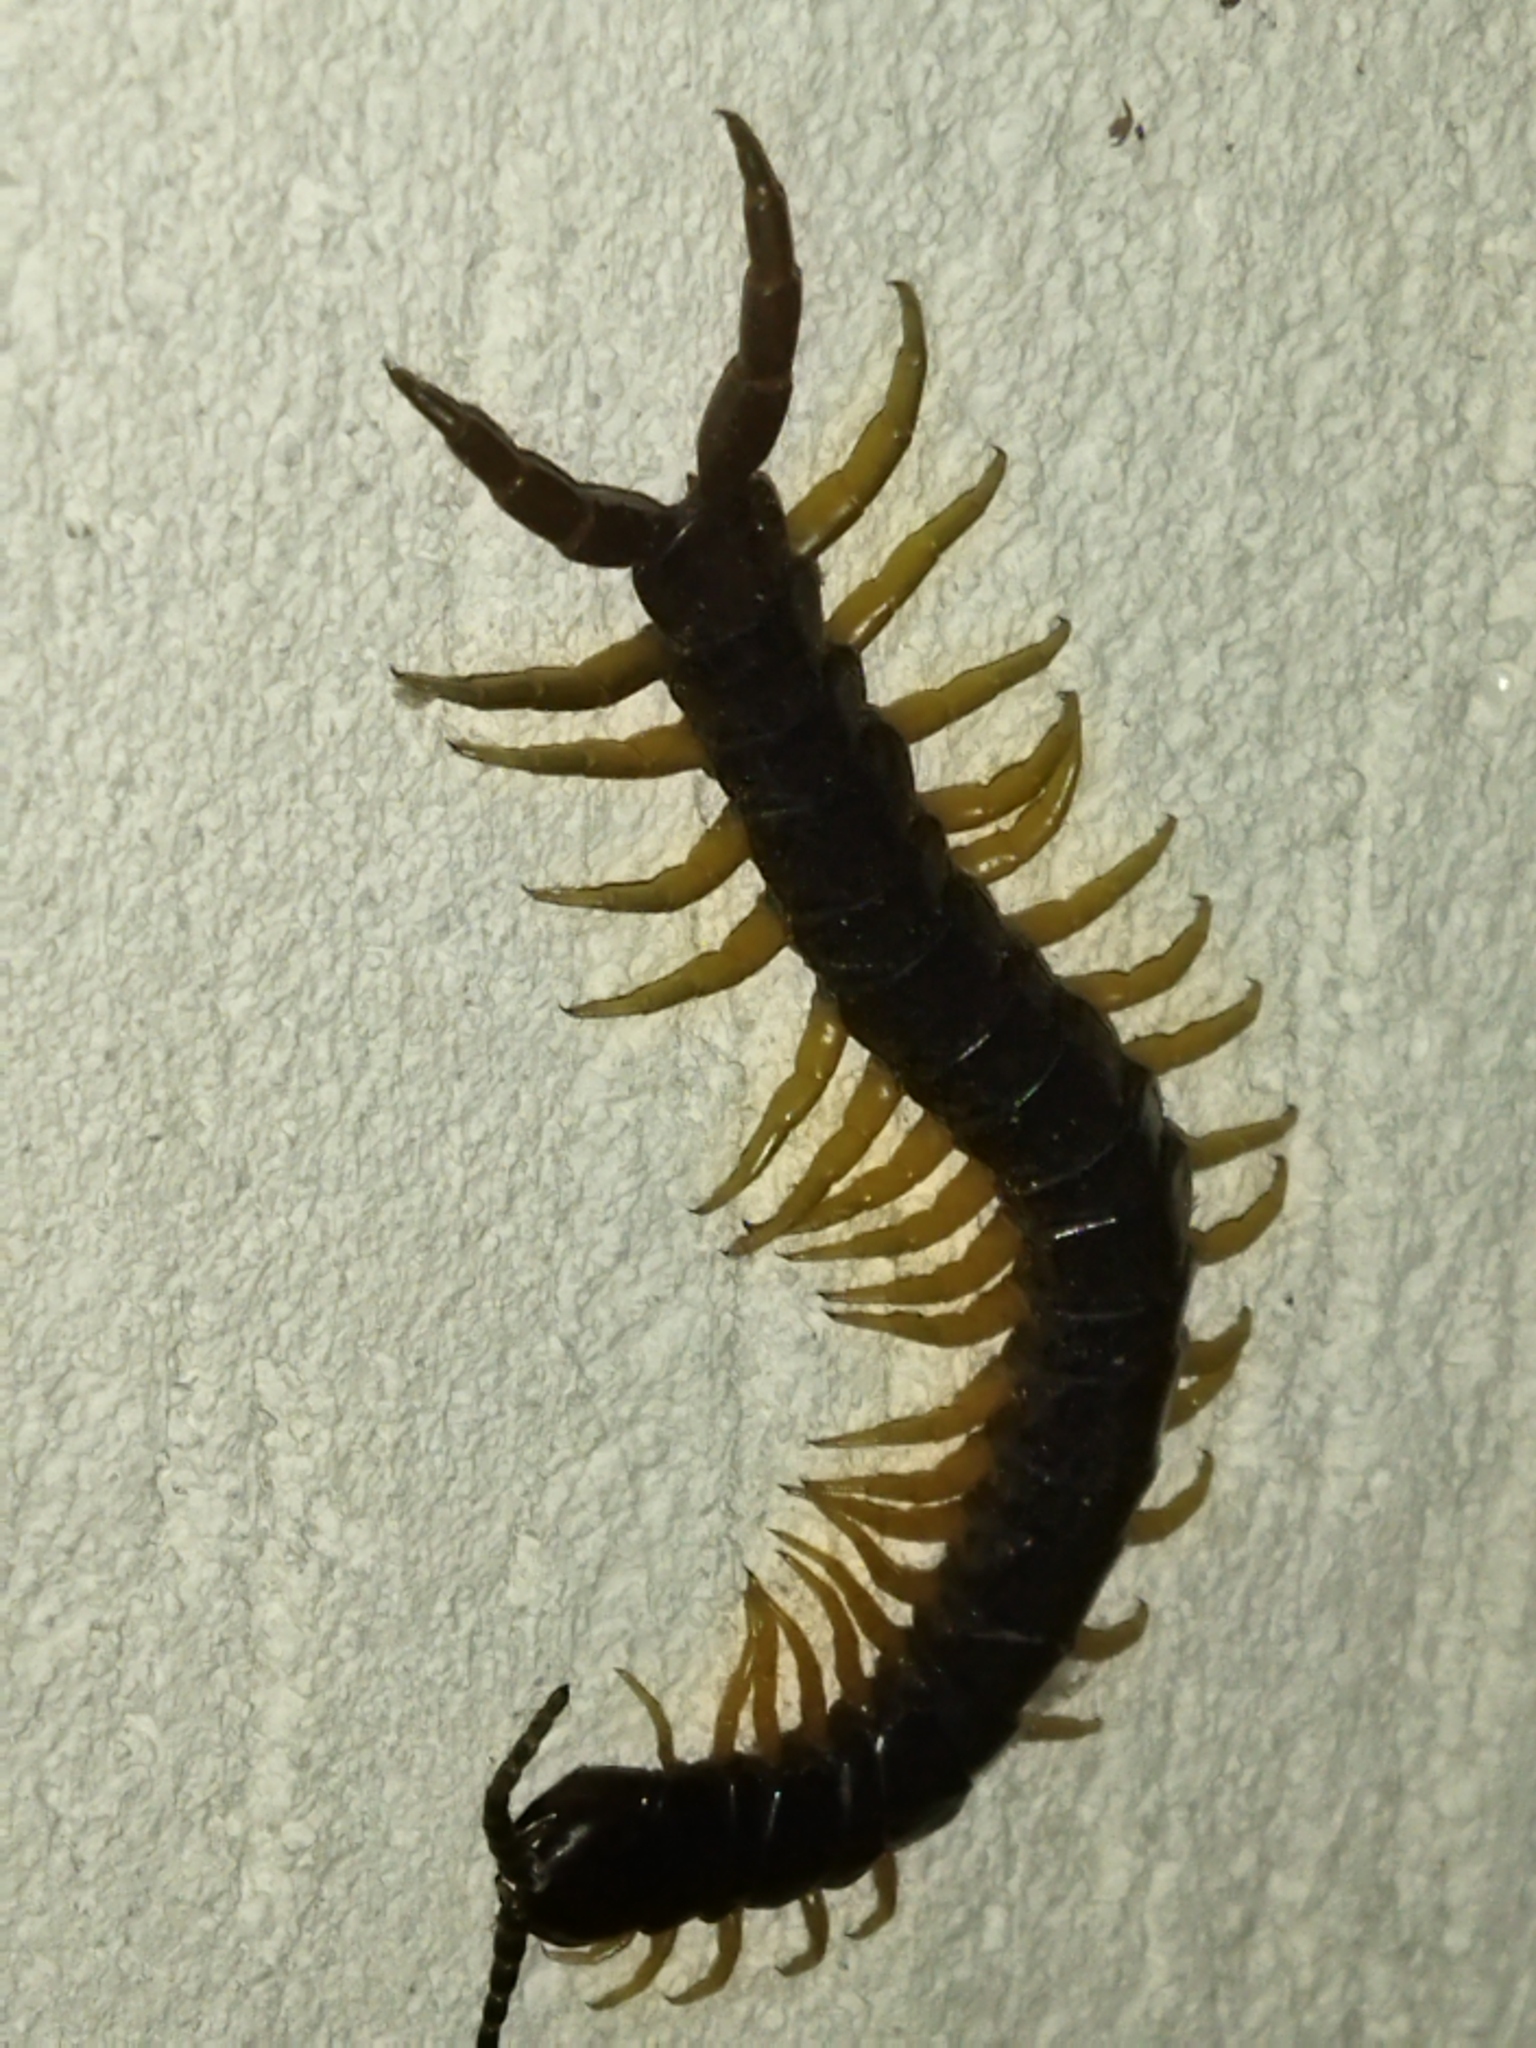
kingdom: Animalia
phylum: Arthropoda
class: Chilopoda
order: Scolopendromorpha
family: Scolopendridae
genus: Scolopendra
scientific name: Scolopendra cingulata
